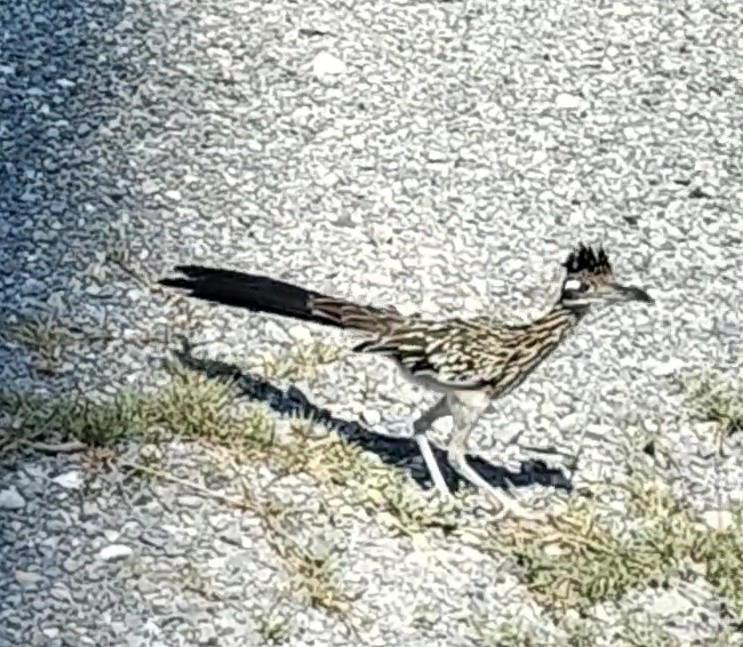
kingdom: Animalia
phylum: Chordata
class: Aves
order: Cuculiformes
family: Cuculidae
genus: Geococcyx
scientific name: Geococcyx californianus
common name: Greater roadrunner
